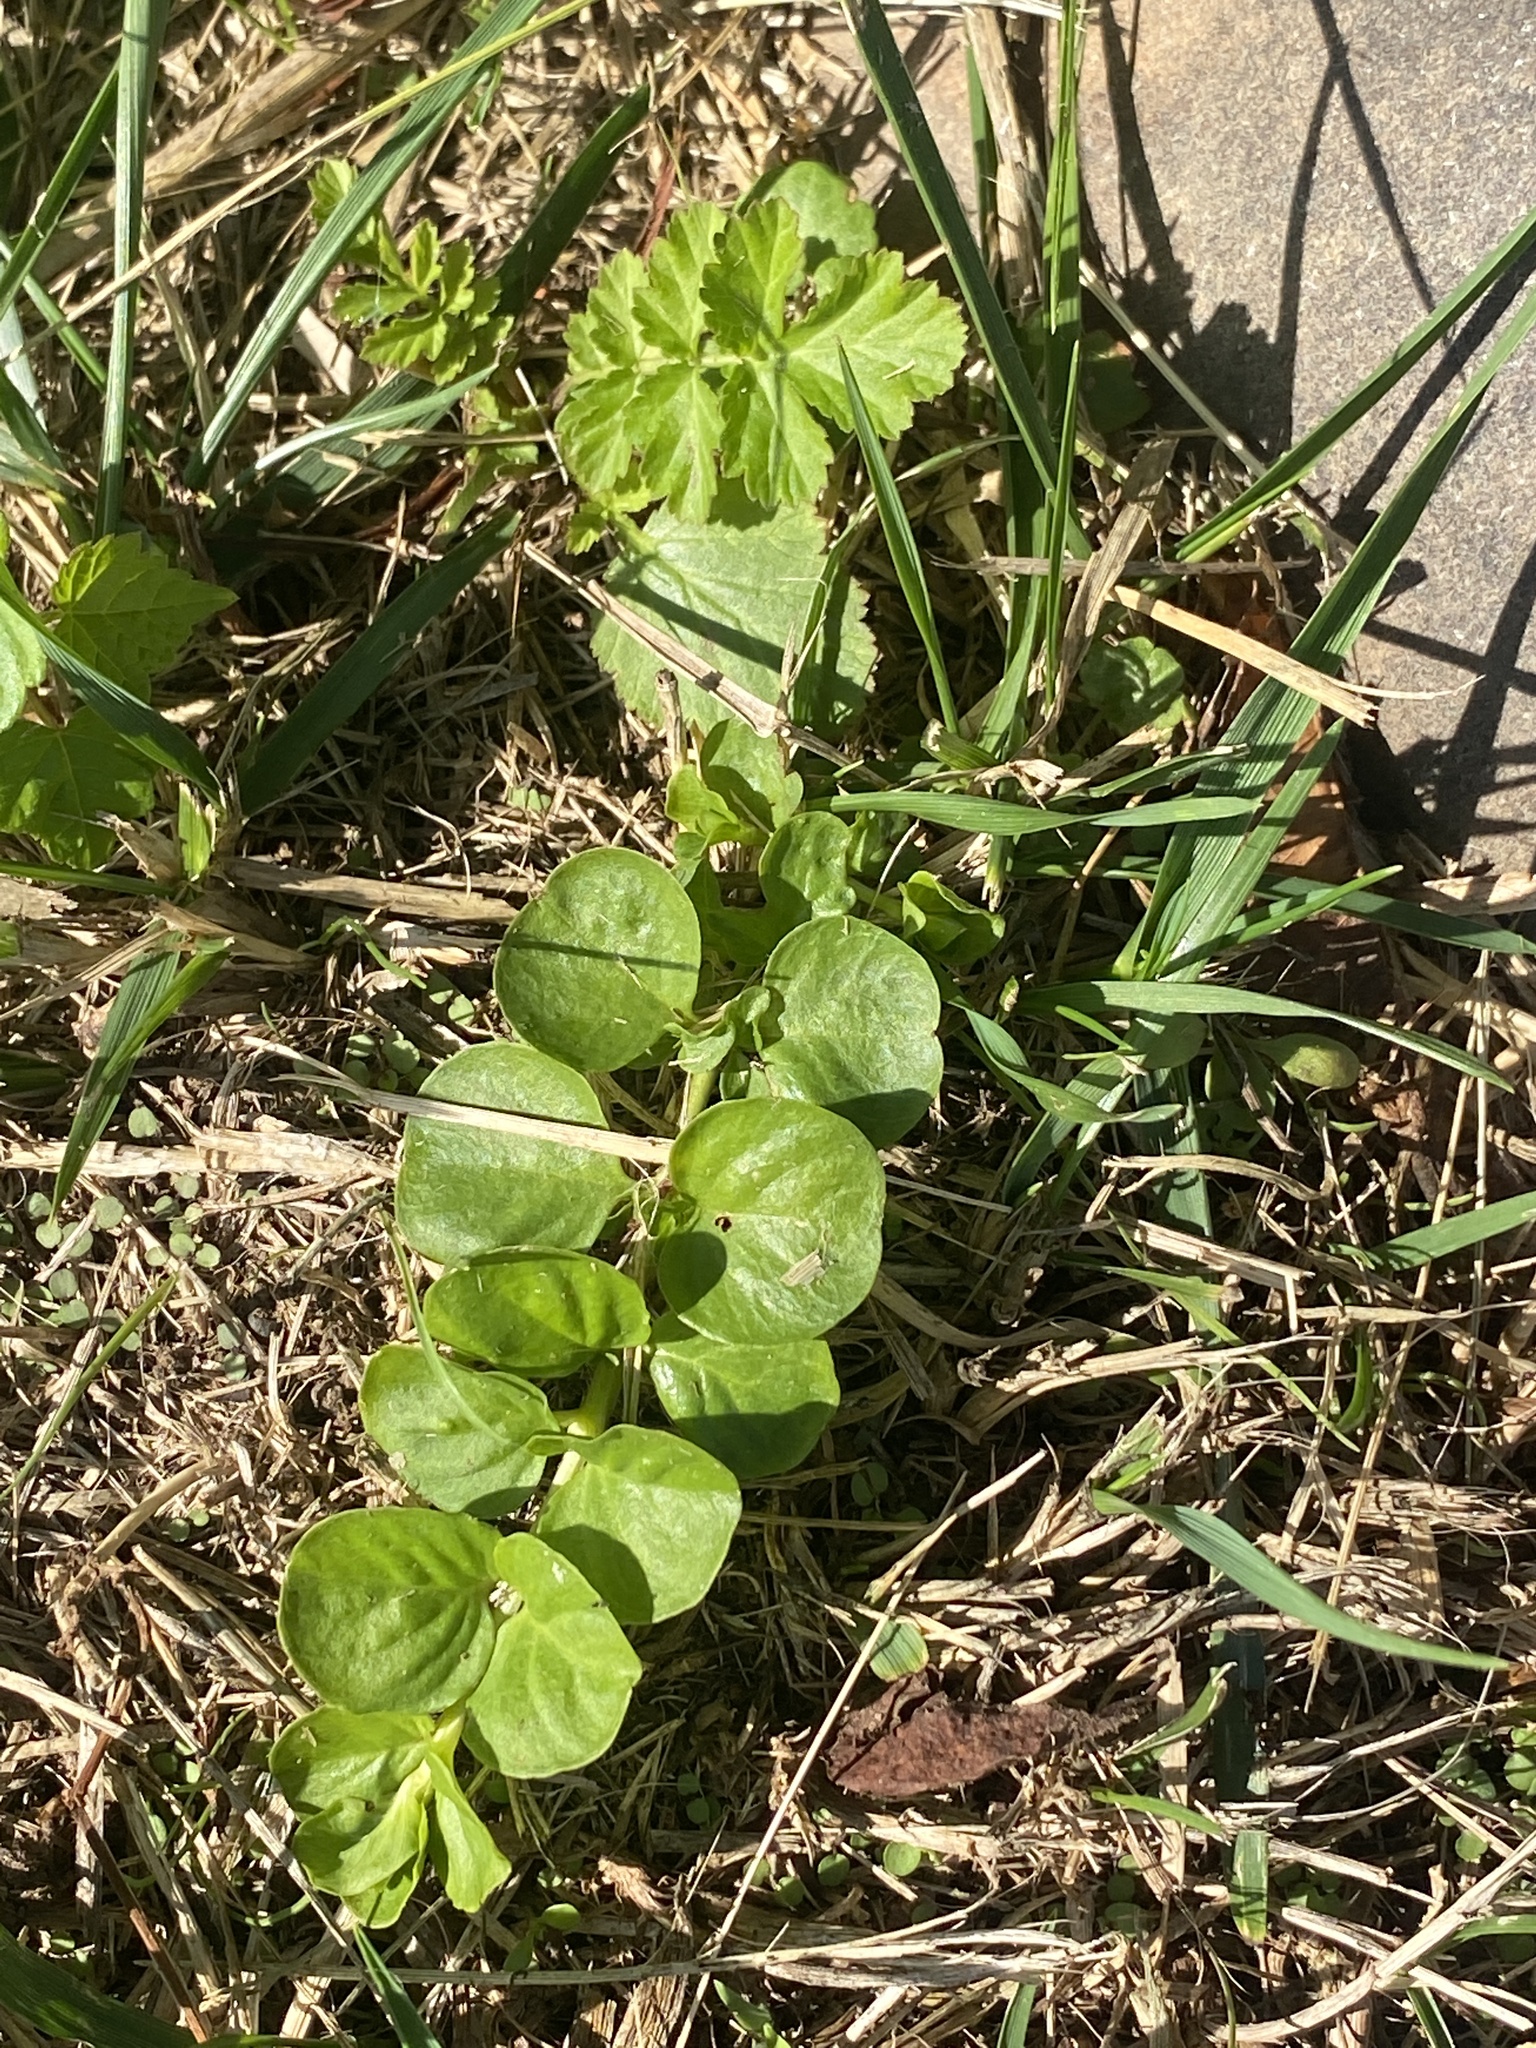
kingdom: Plantae
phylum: Tracheophyta
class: Magnoliopsida
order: Ericales
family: Primulaceae
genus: Lysimachia
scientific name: Lysimachia nummularia
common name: Moneywort
